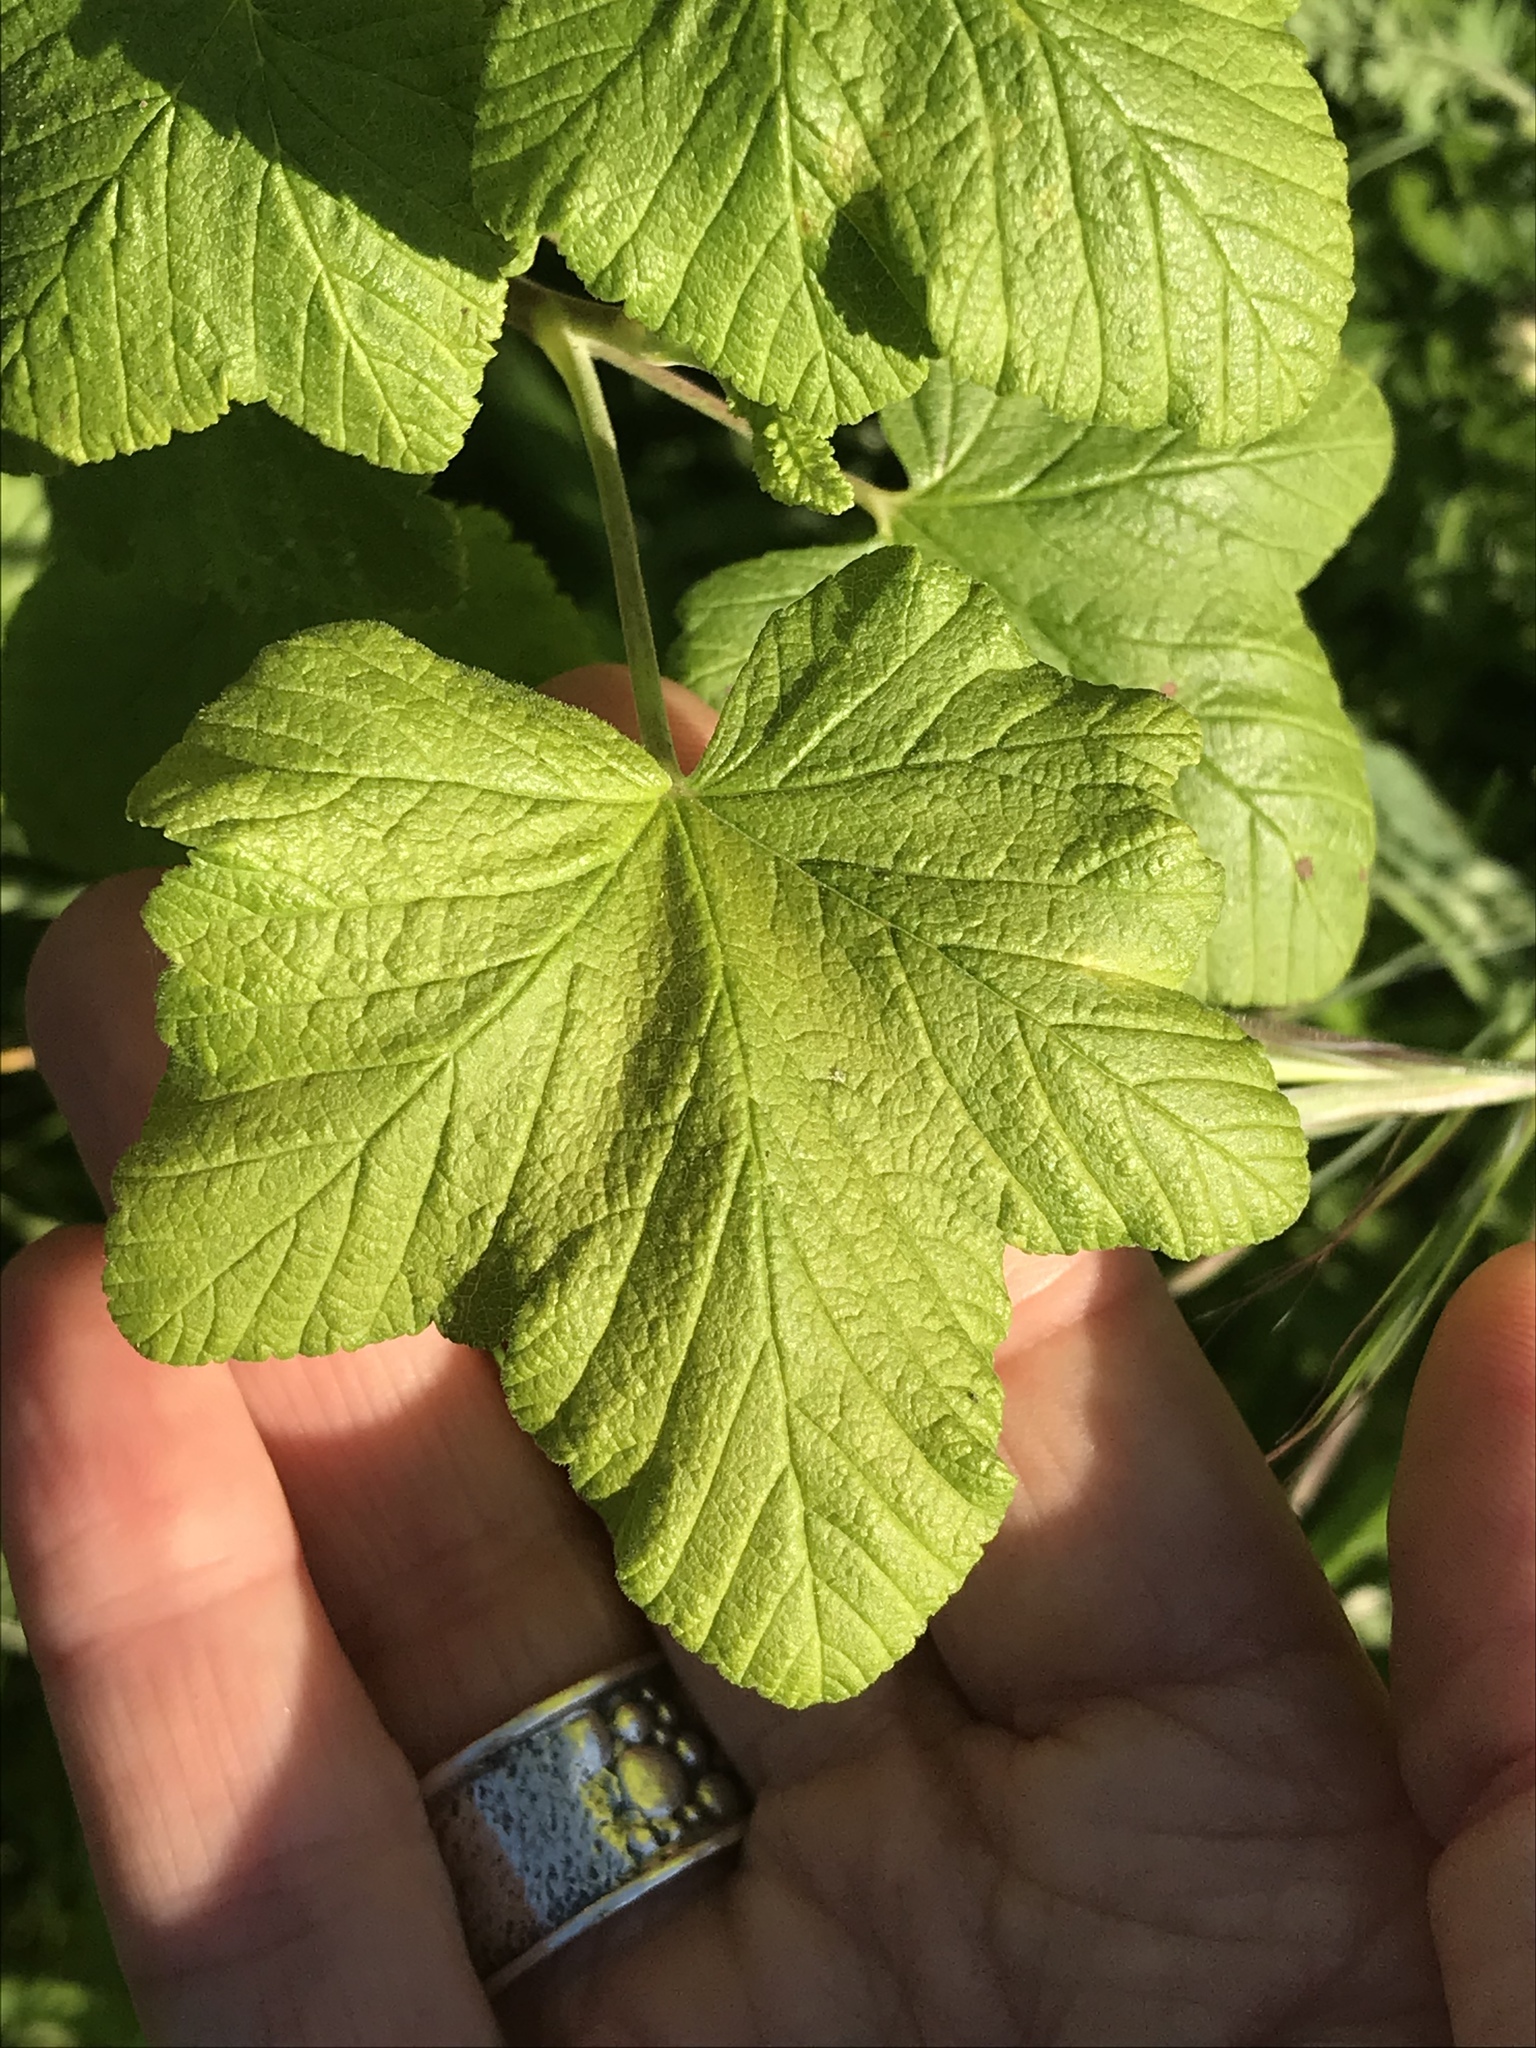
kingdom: Plantae
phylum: Tracheophyta
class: Magnoliopsida
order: Saxifragales
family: Grossulariaceae
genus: Ribes
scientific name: Ribes sanguineum
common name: Flowering currant
